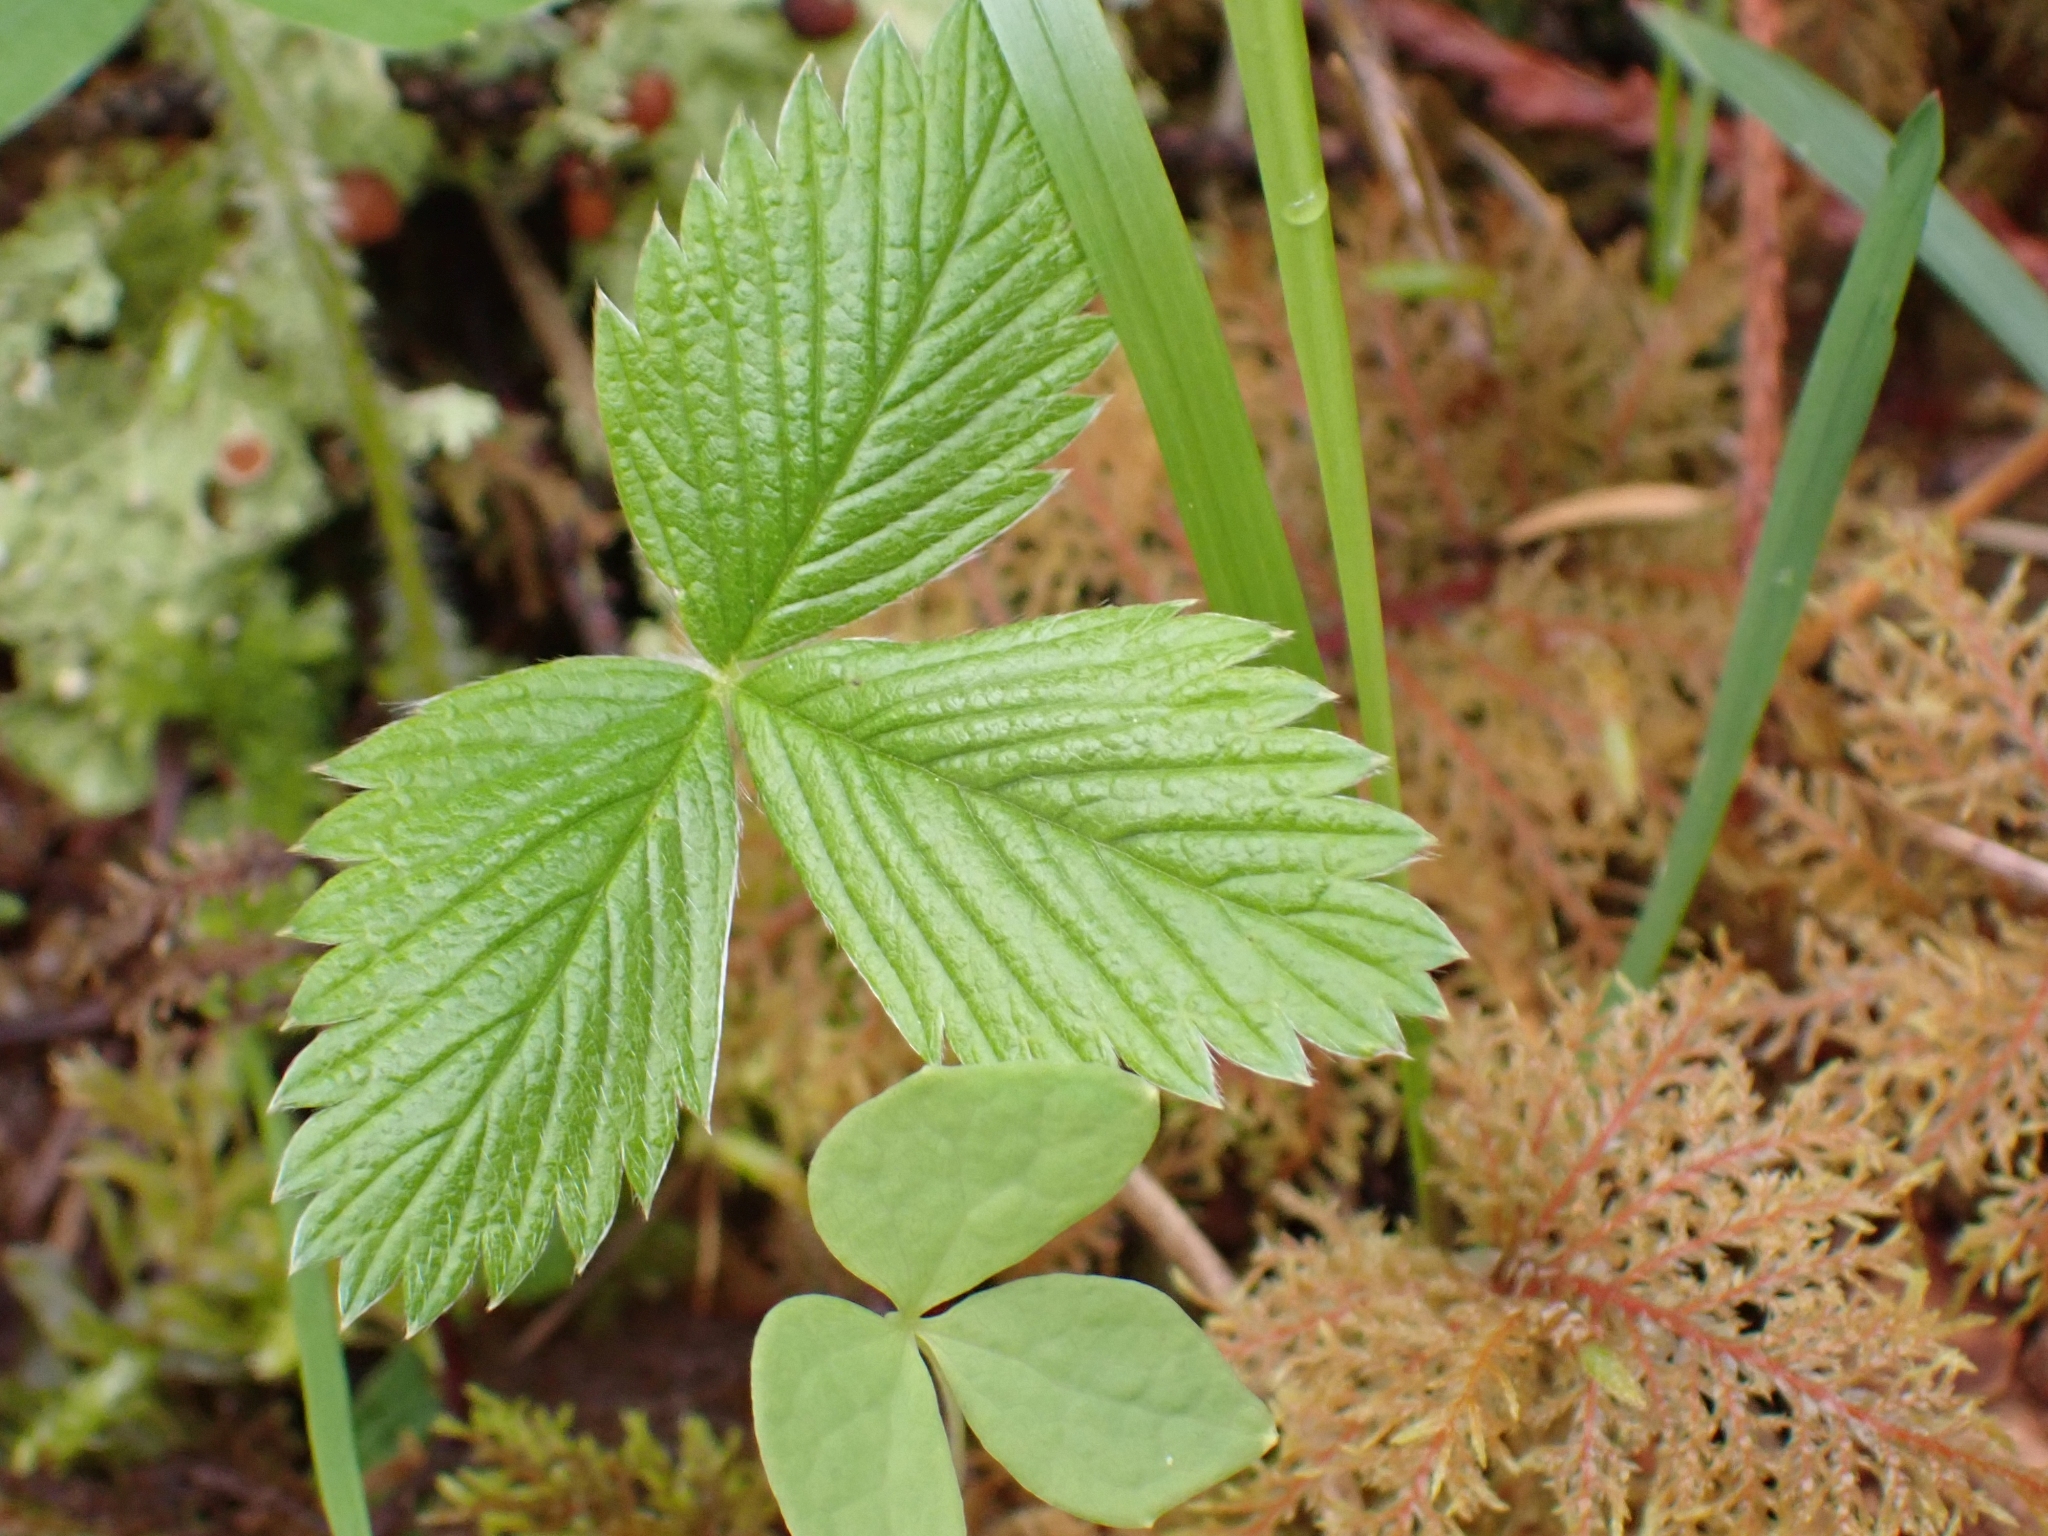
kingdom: Plantae
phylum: Tracheophyta
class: Magnoliopsida
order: Rosales
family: Rosaceae
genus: Fragaria
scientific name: Fragaria vesca
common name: Wild strawberry
